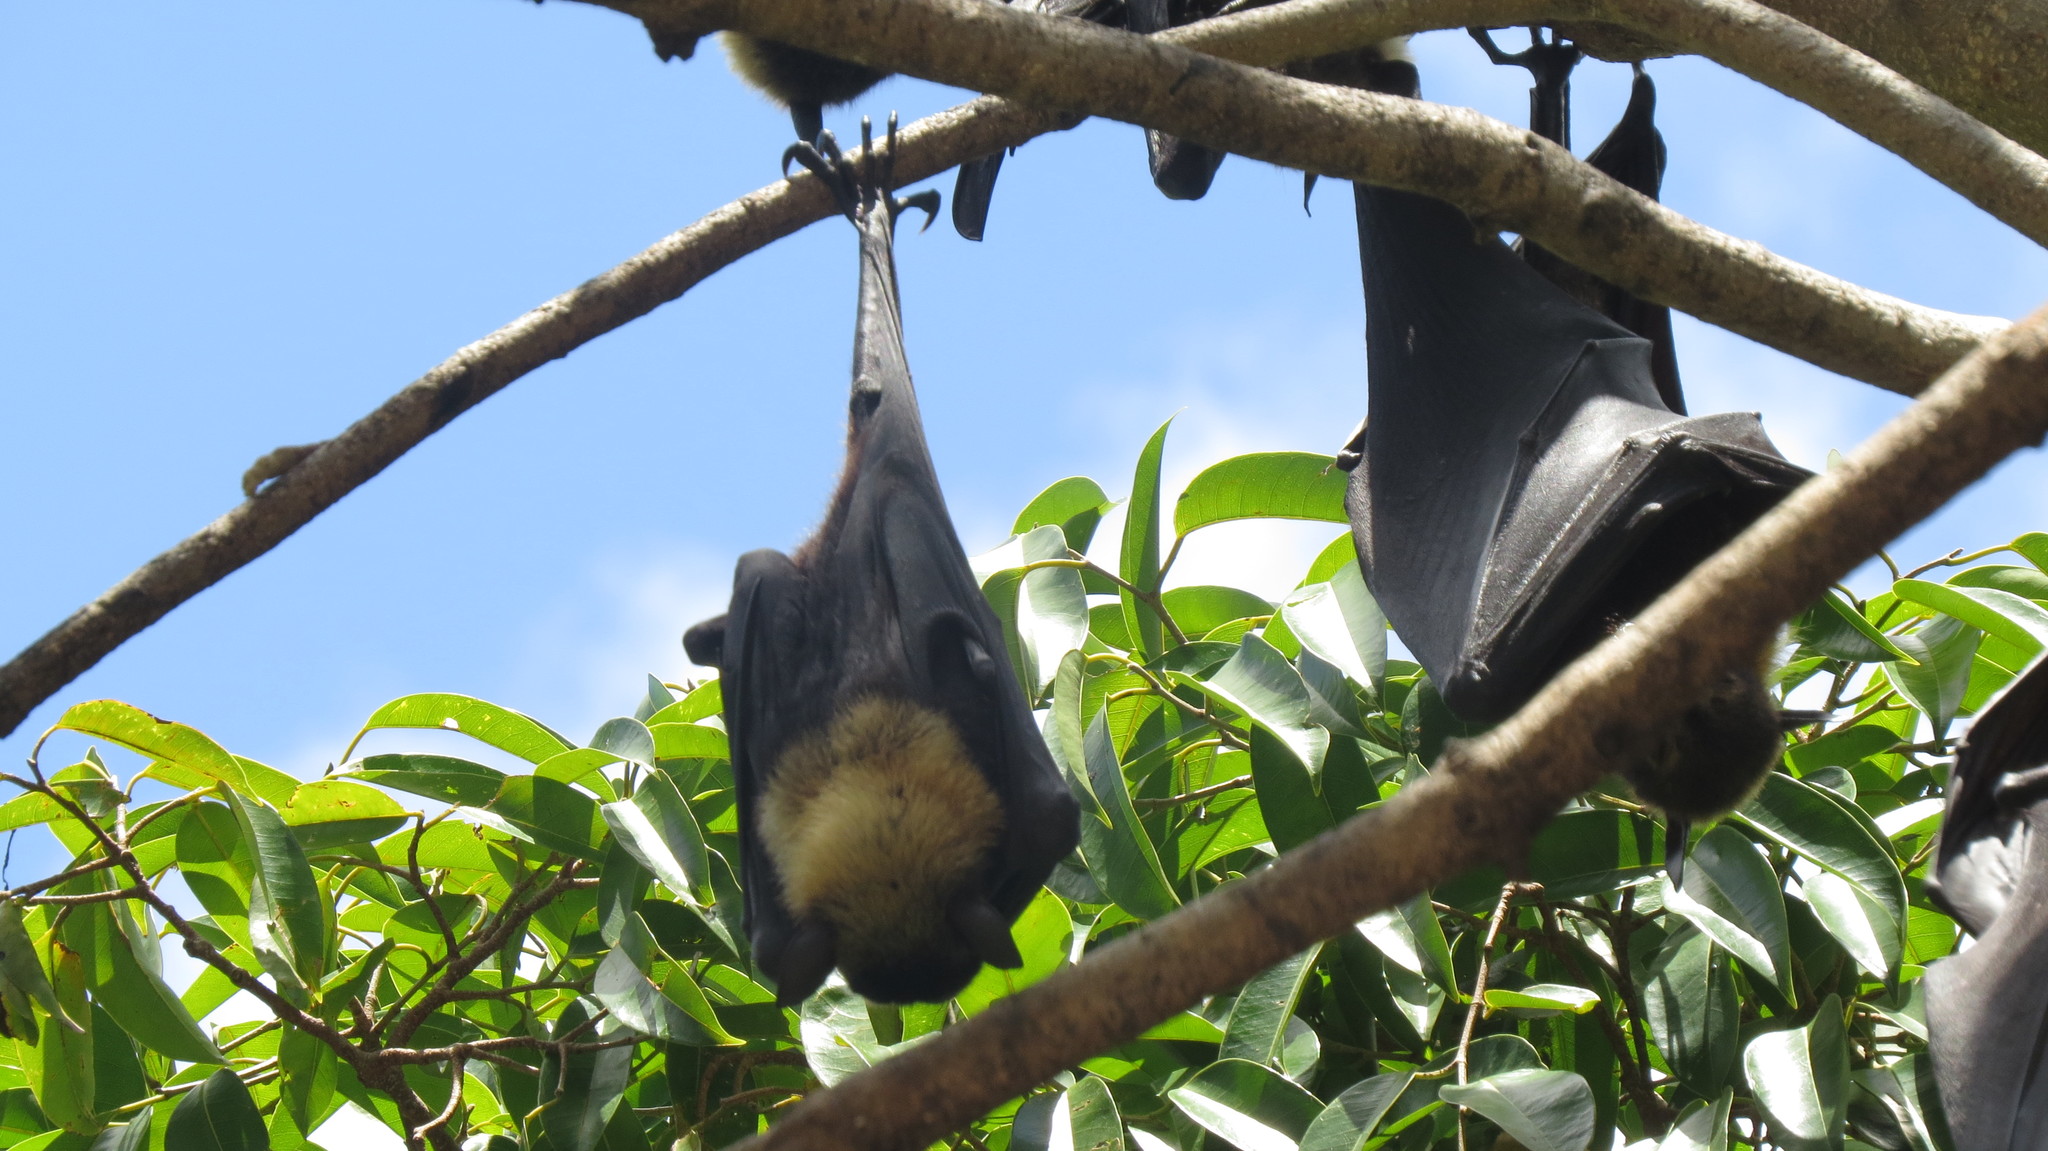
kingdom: Animalia
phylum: Chordata
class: Mammalia
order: Chiroptera
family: Pteropodidae
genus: Pteropus
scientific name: Pteropus conspicillatus
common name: Spectacled flying fox
